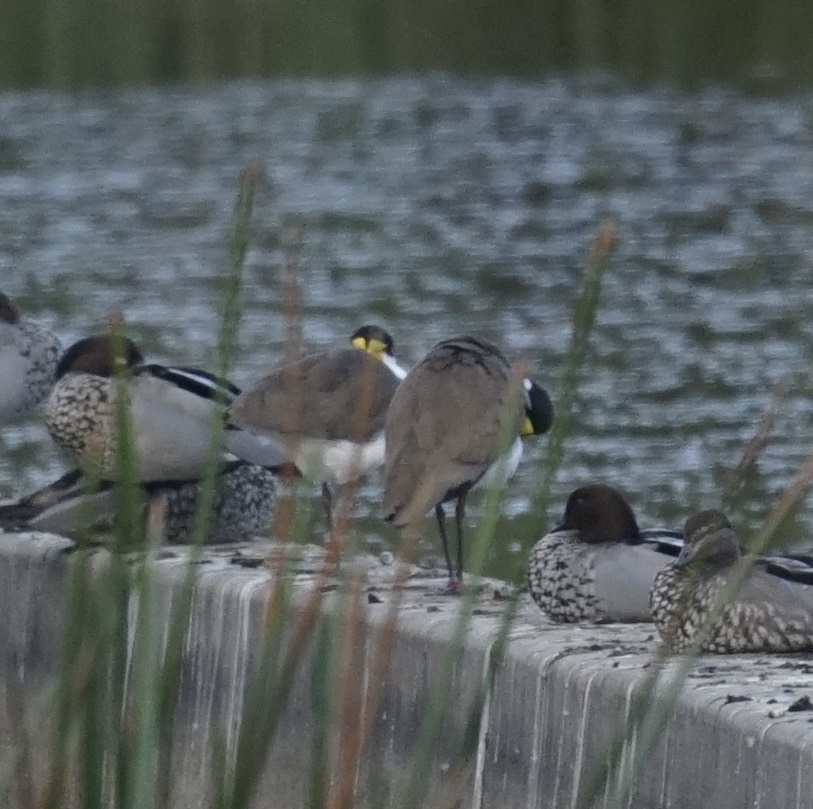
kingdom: Animalia
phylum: Chordata
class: Aves
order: Charadriiformes
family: Charadriidae
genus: Vanellus
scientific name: Vanellus miles
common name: Masked lapwing
